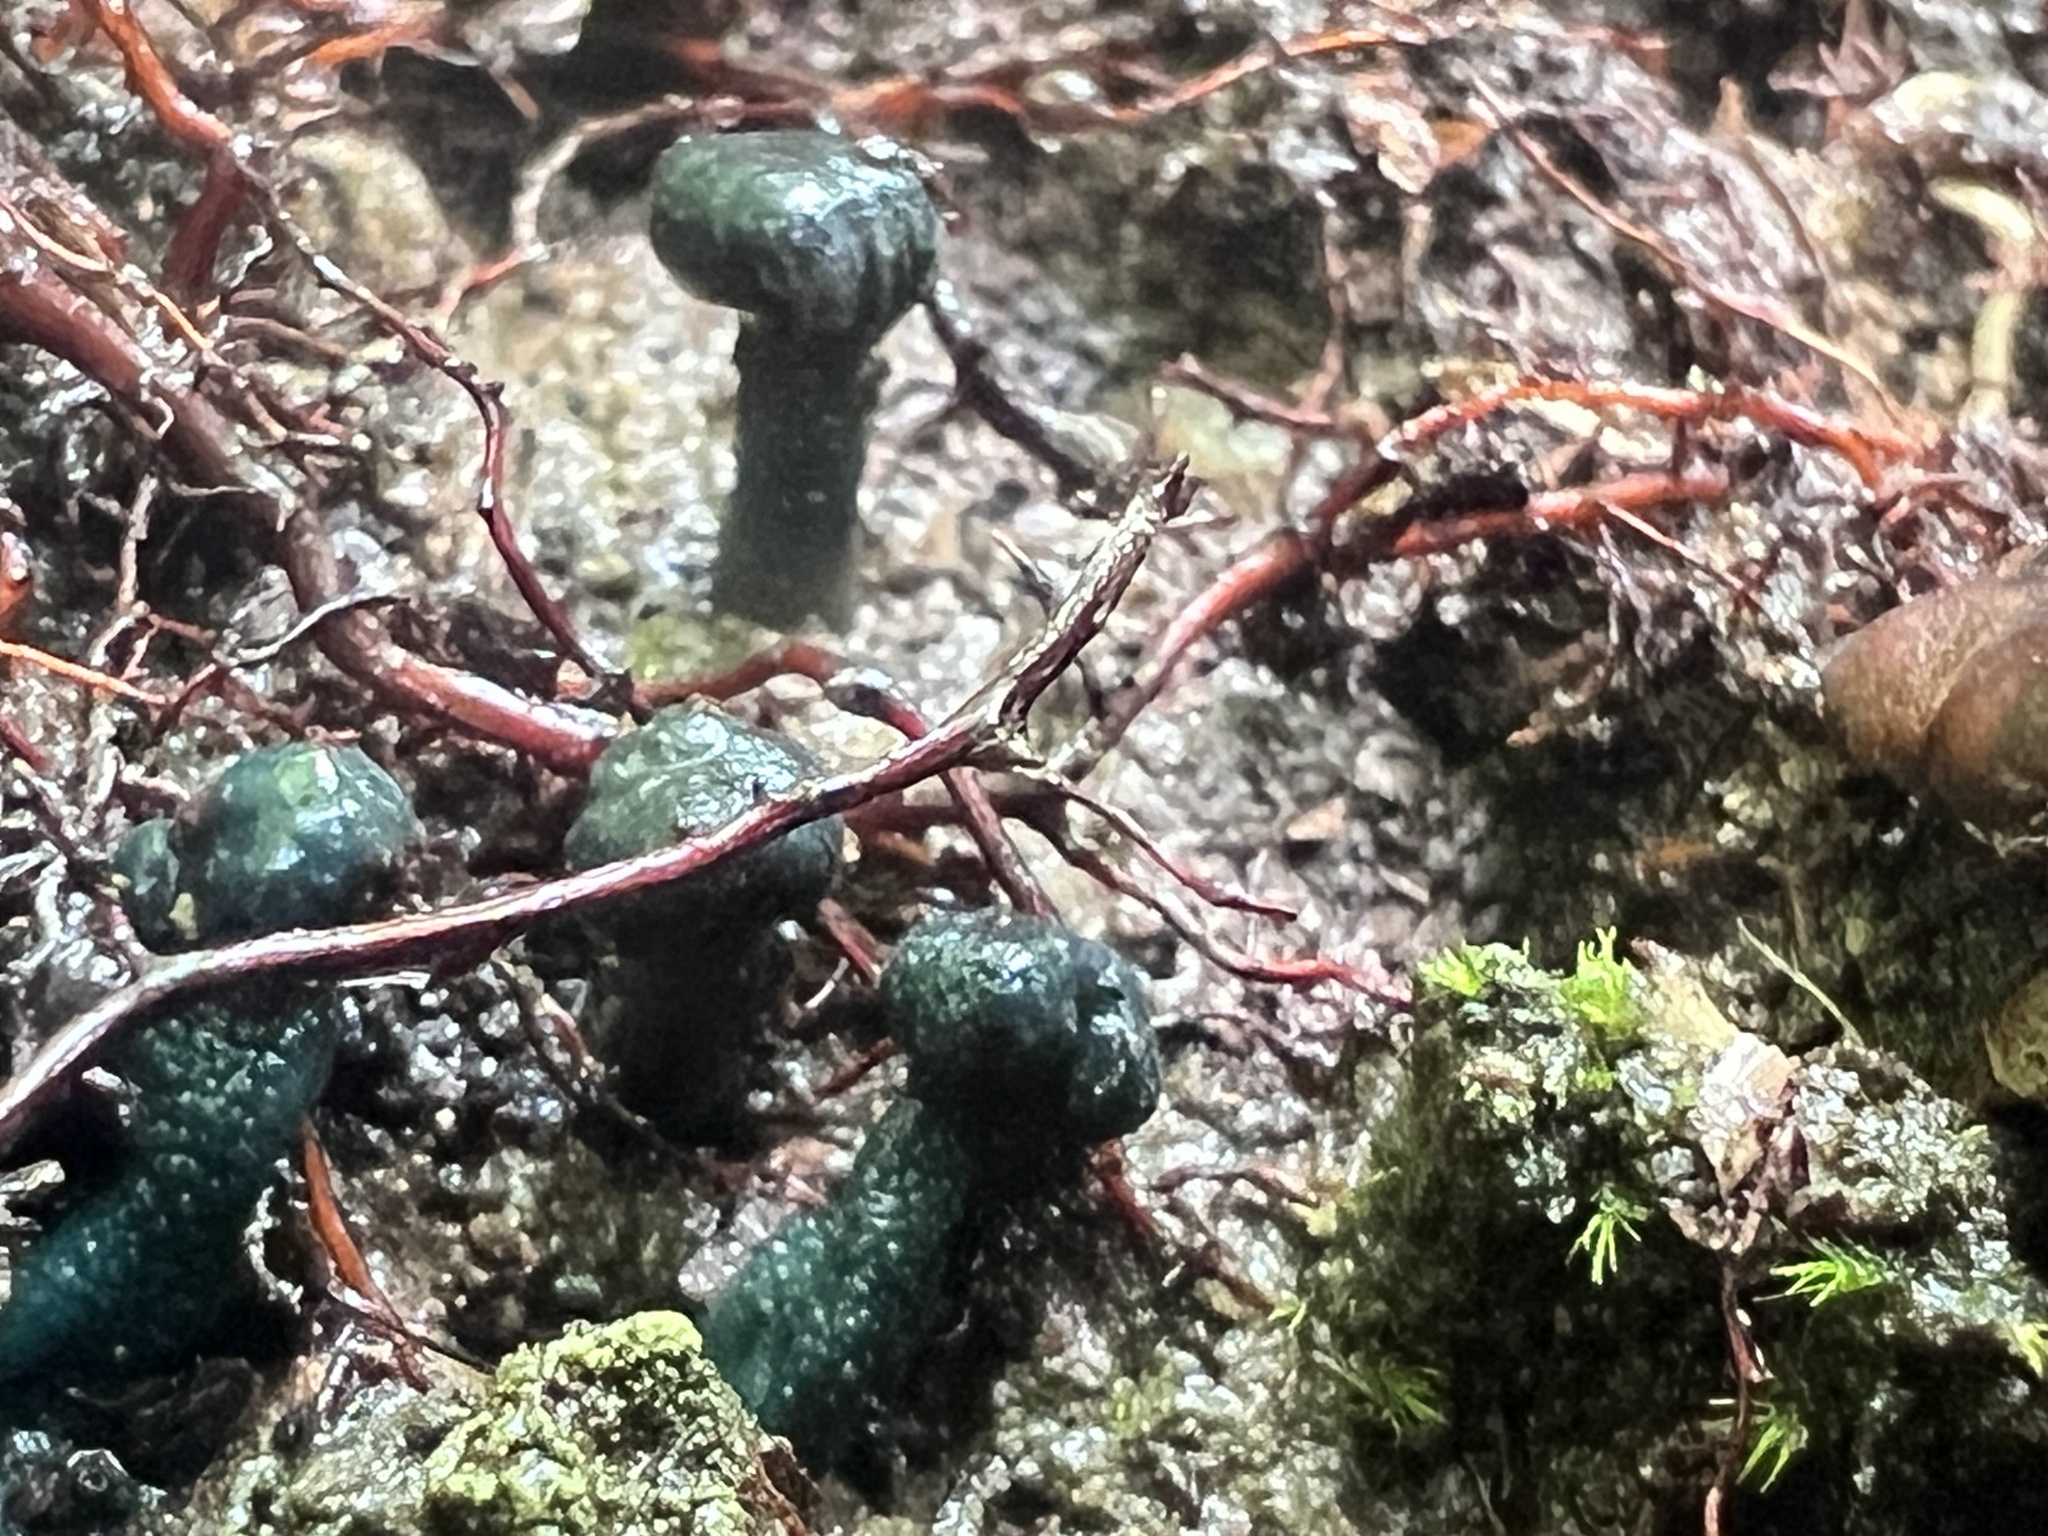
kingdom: Fungi
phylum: Ascomycota
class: Leotiomycetes
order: Leotiales
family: Leotiaceae
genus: Leotia
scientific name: Leotia atrovirens
